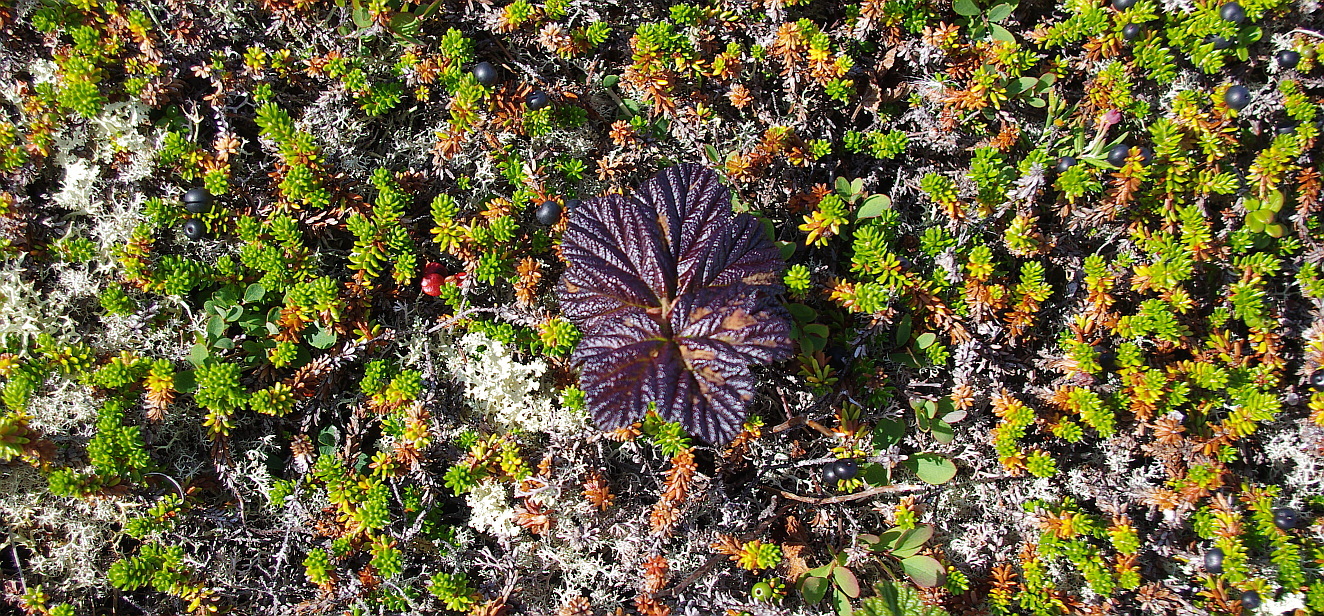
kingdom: Plantae
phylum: Tracheophyta
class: Magnoliopsida
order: Rosales
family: Rosaceae
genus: Rubus
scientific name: Rubus chamaemorus
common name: Cloudberry
